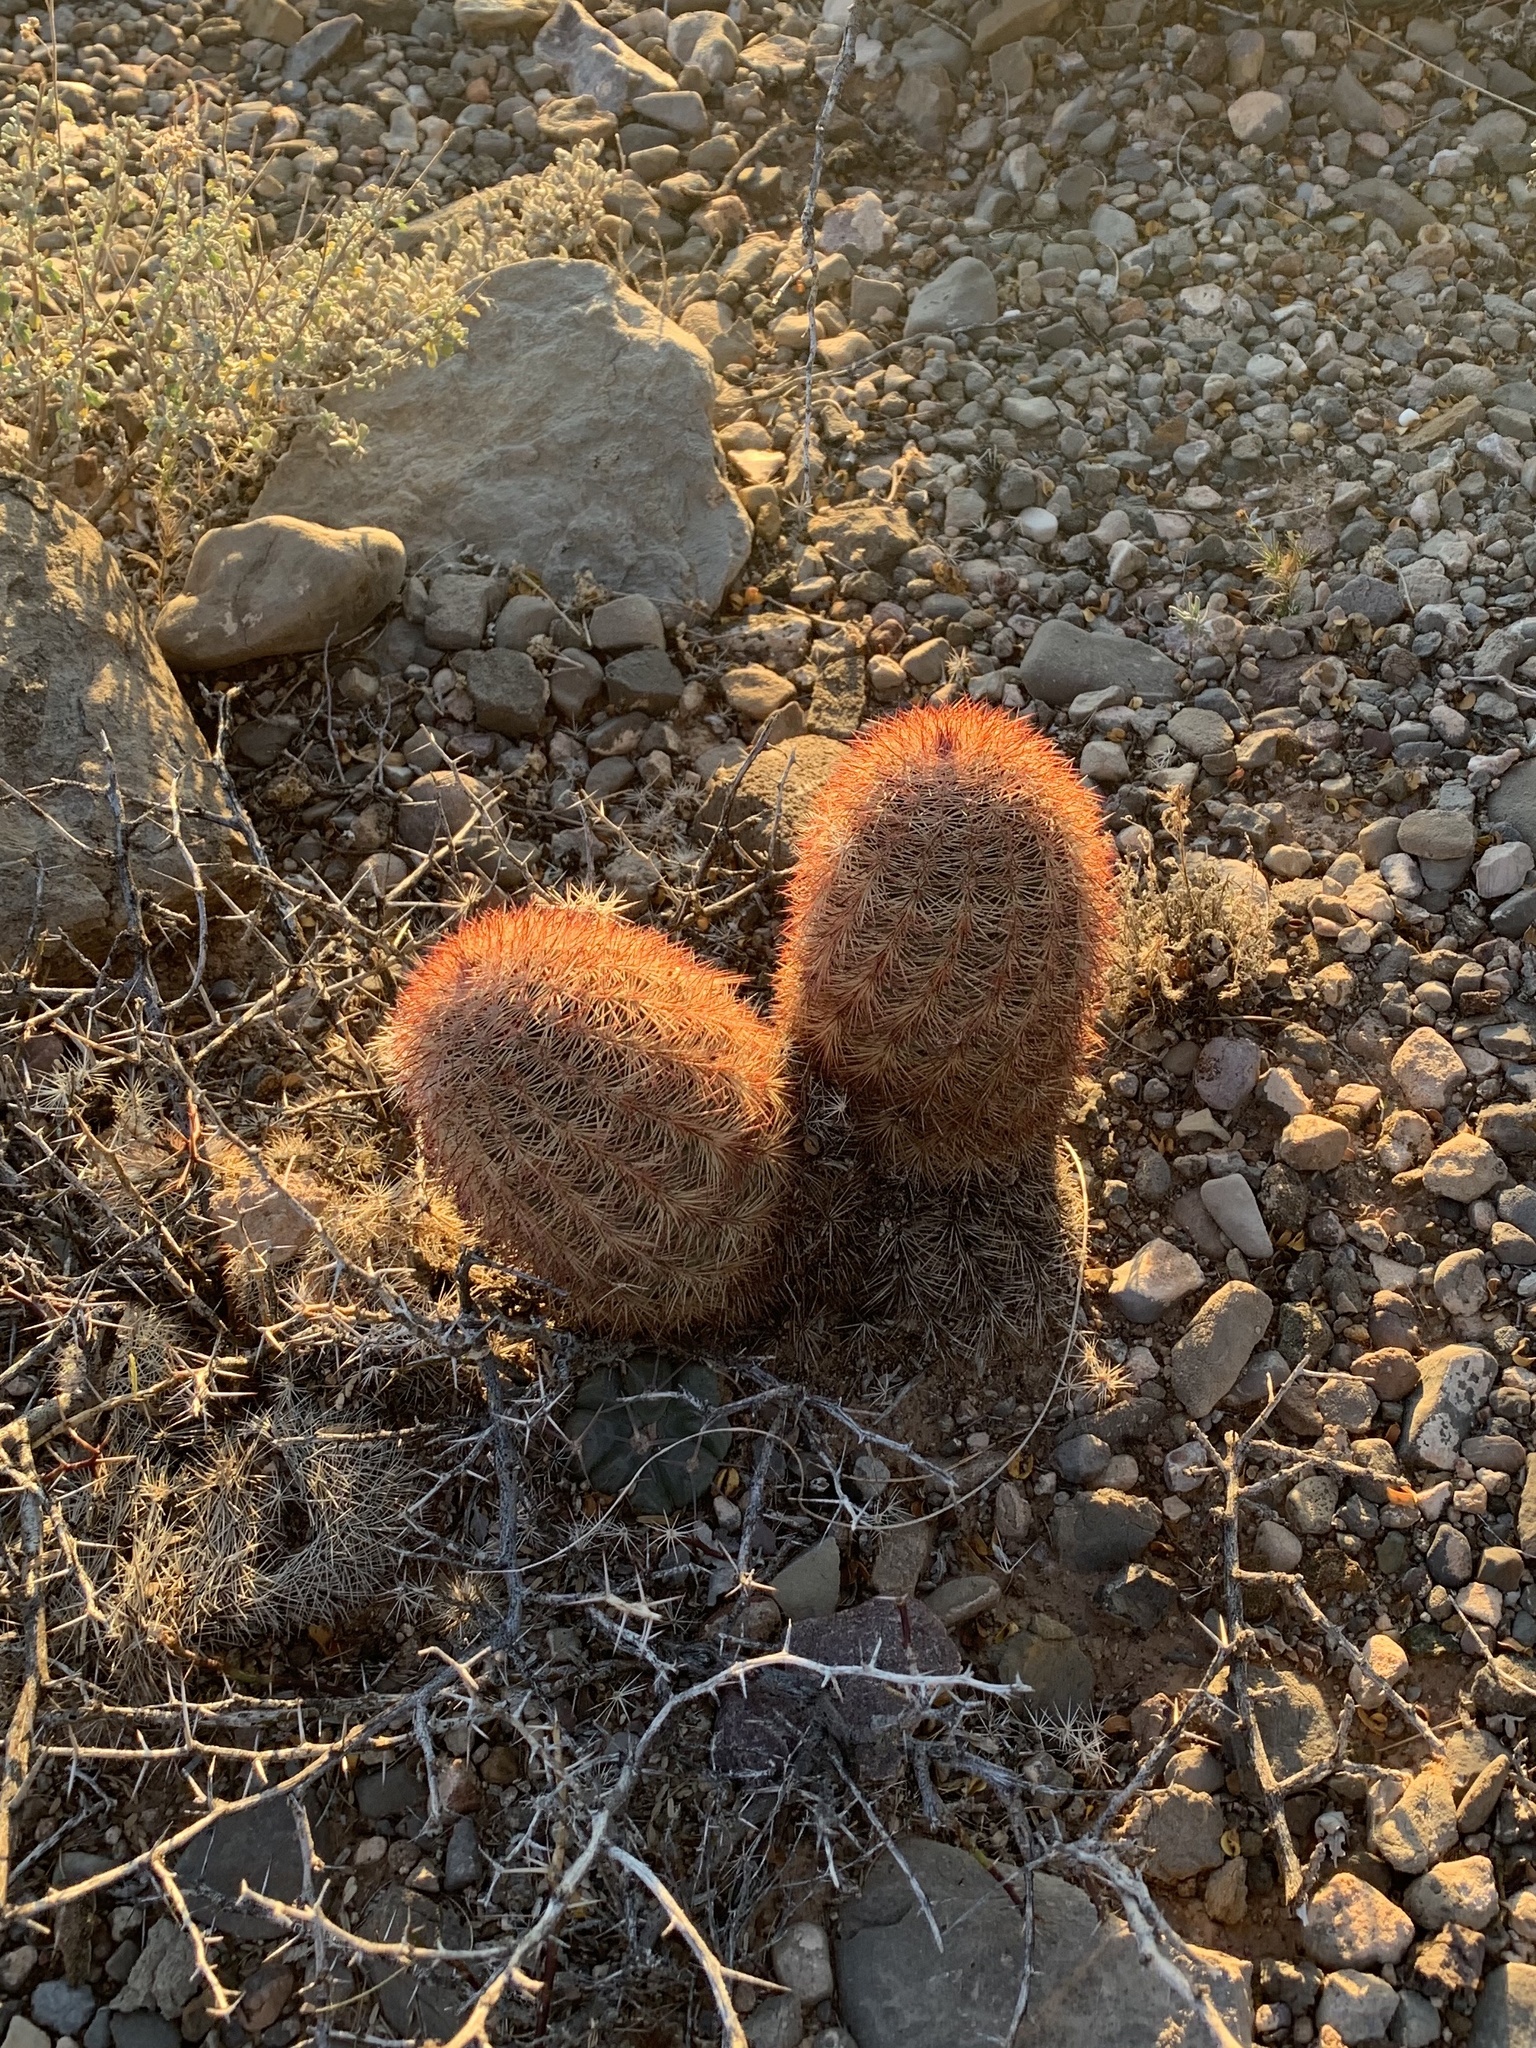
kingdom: Plantae
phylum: Tracheophyta
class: Magnoliopsida
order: Caryophyllales
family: Cactaceae
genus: Echinocereus
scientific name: Echinocereus dasyacanthus
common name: Spiny hedgehog cactus
